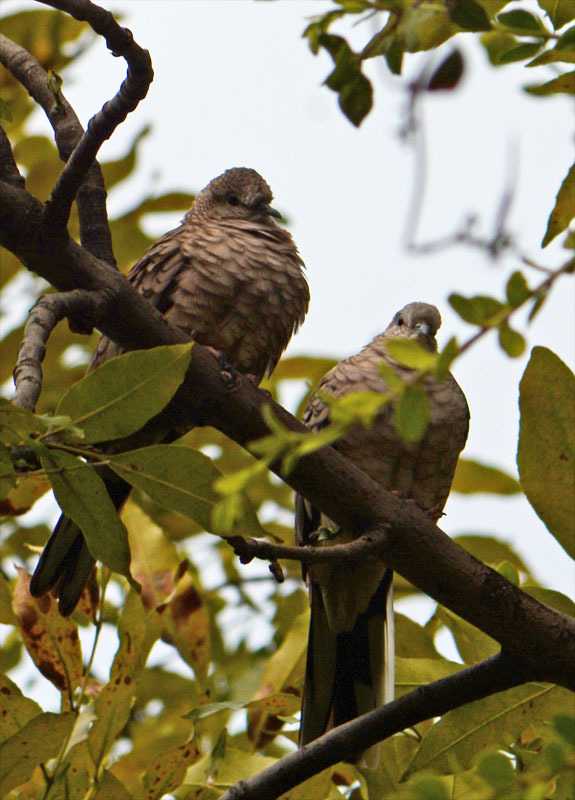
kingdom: Animalia
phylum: Chordata
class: Aves
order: Columbiformes
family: Columbidae
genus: Columbina
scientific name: Columbina inca
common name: Inca dove
